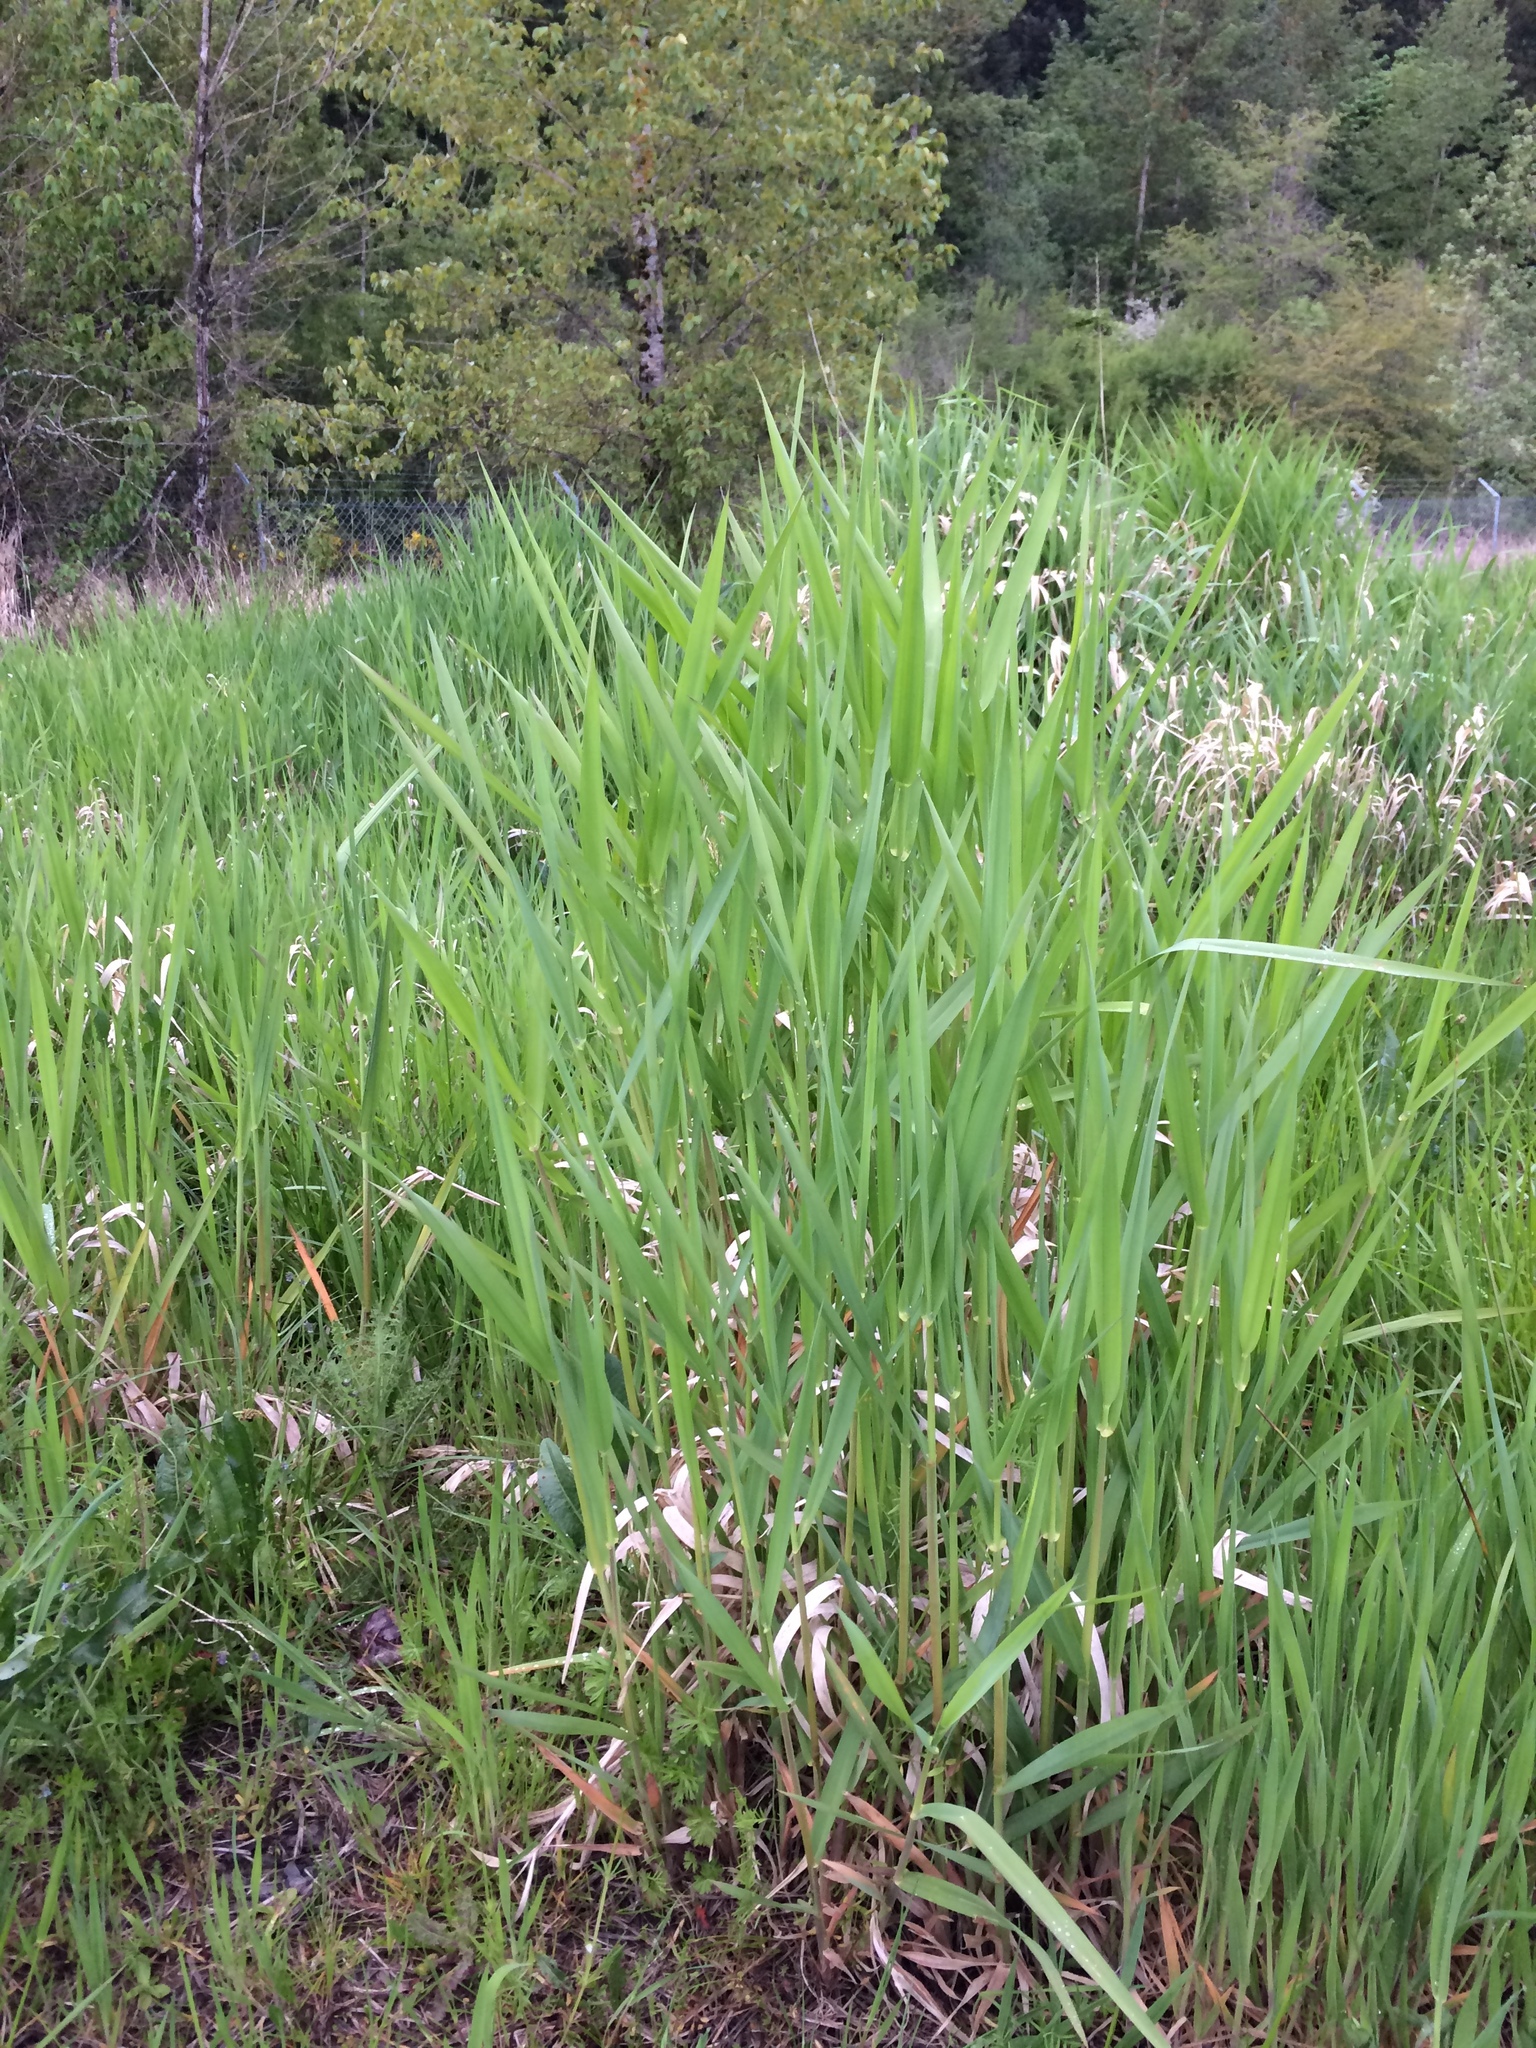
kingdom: Plantae
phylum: Tracheophyta
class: Liliopsida
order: Poales
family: Poaceae
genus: Phalaris
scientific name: Phalaris arundinacea
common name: Reed canary-grass
